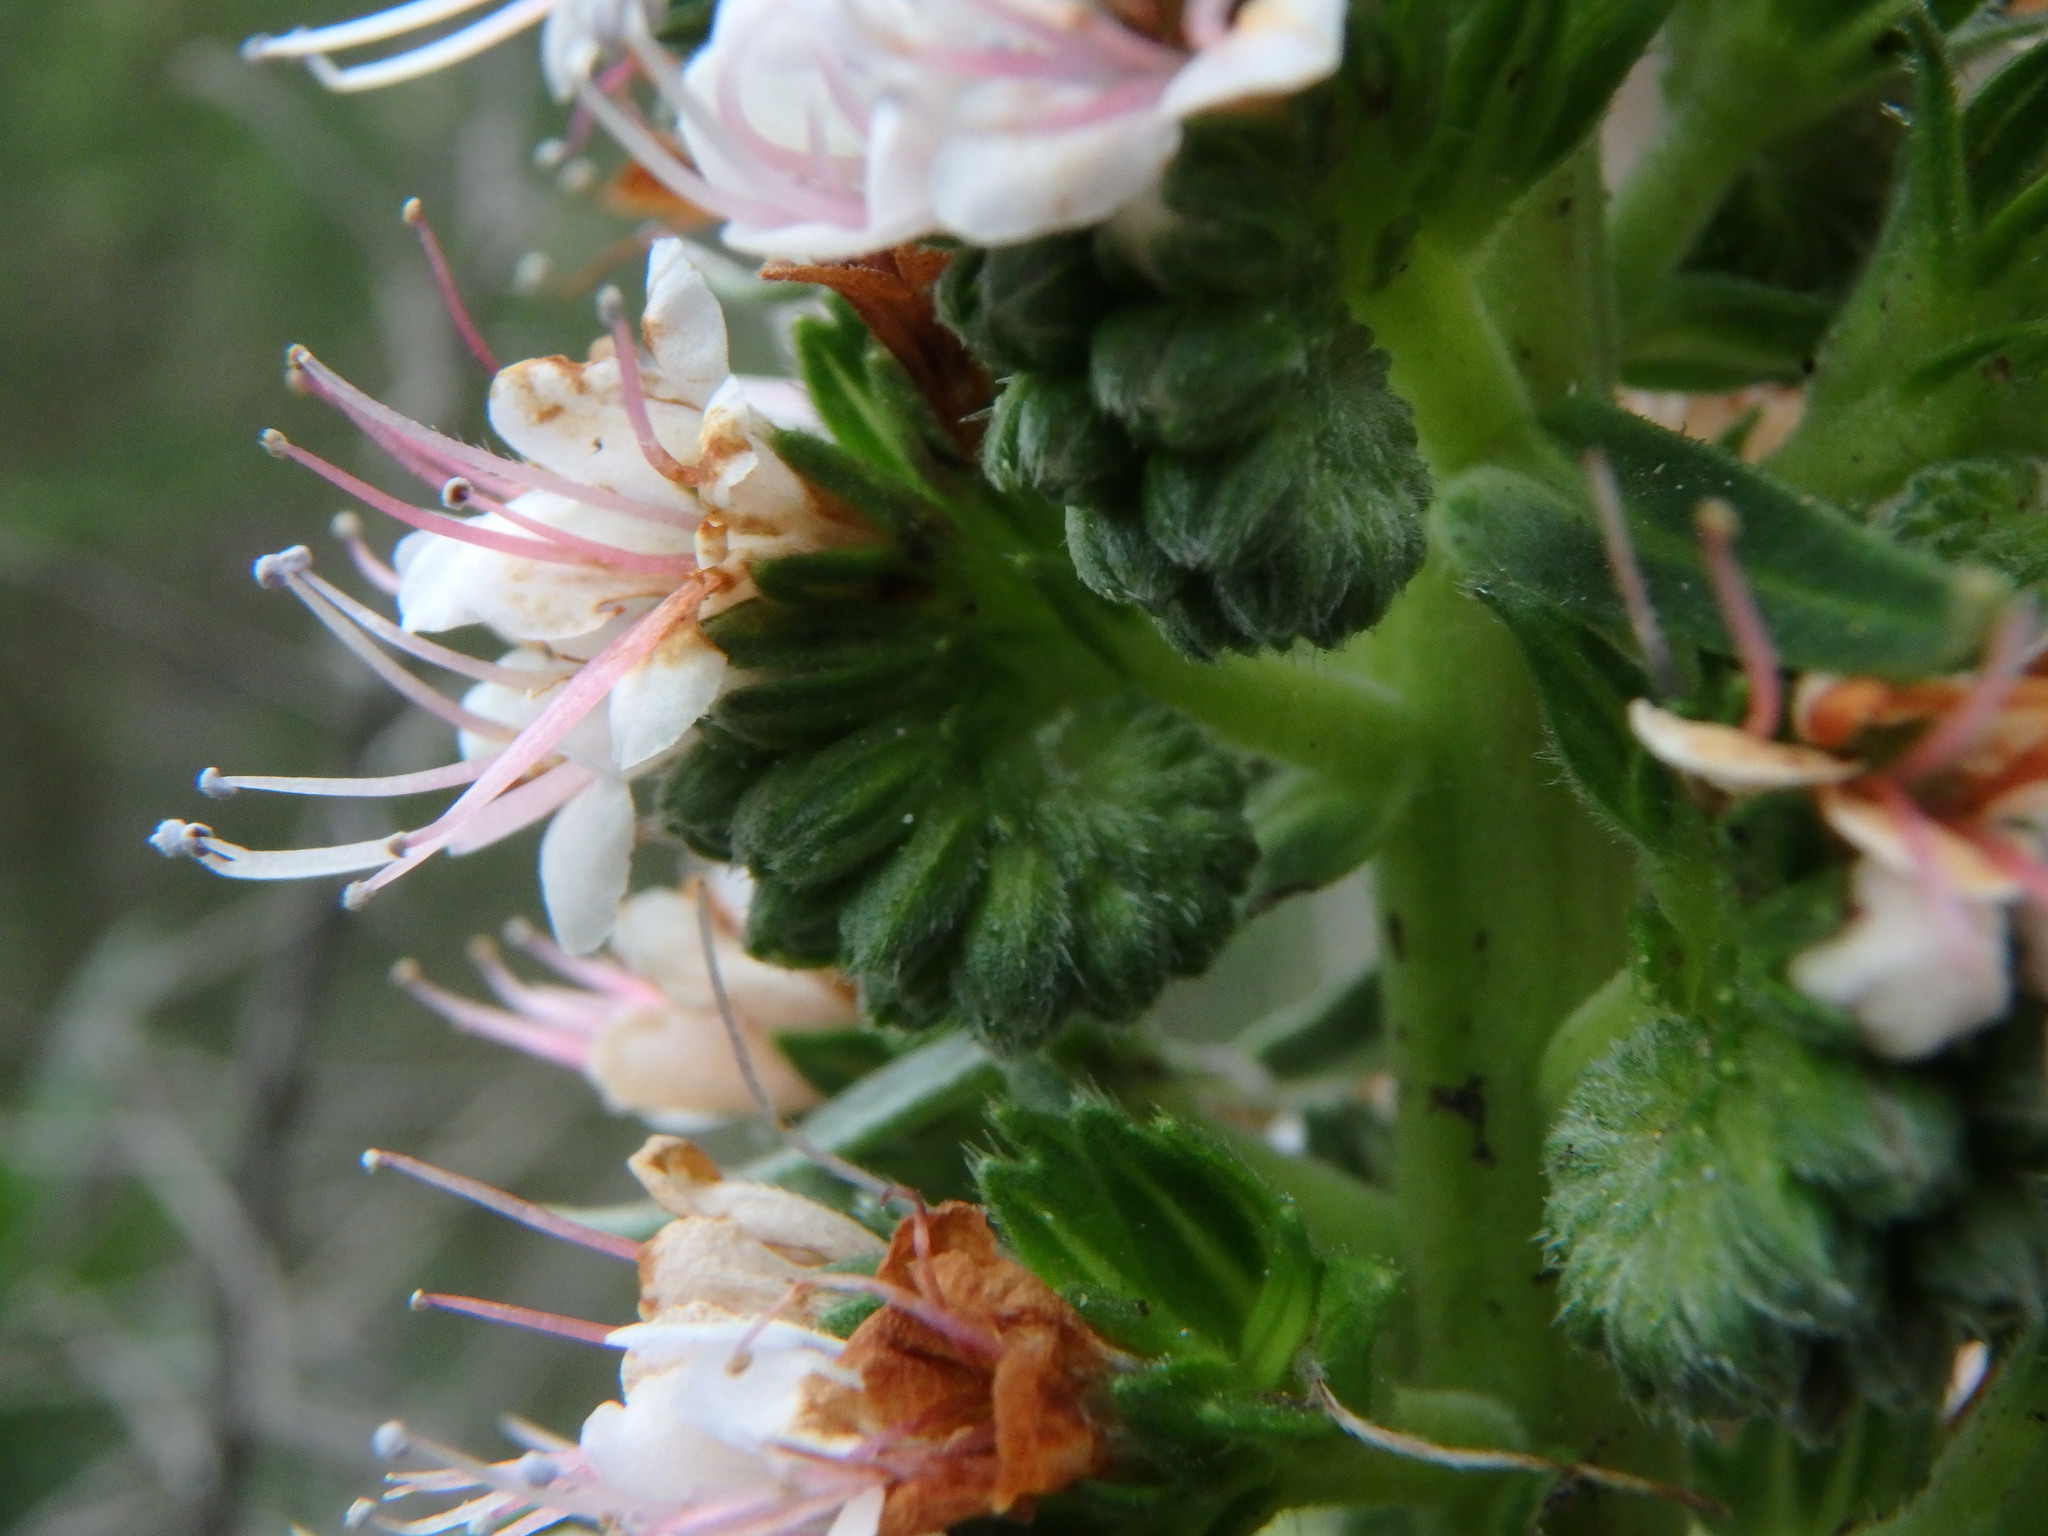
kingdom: Plantae
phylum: Tracheophyta
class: Magnoliopsida
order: Boraginales
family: Boraginaceae
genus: Echium
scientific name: Echium virescens
